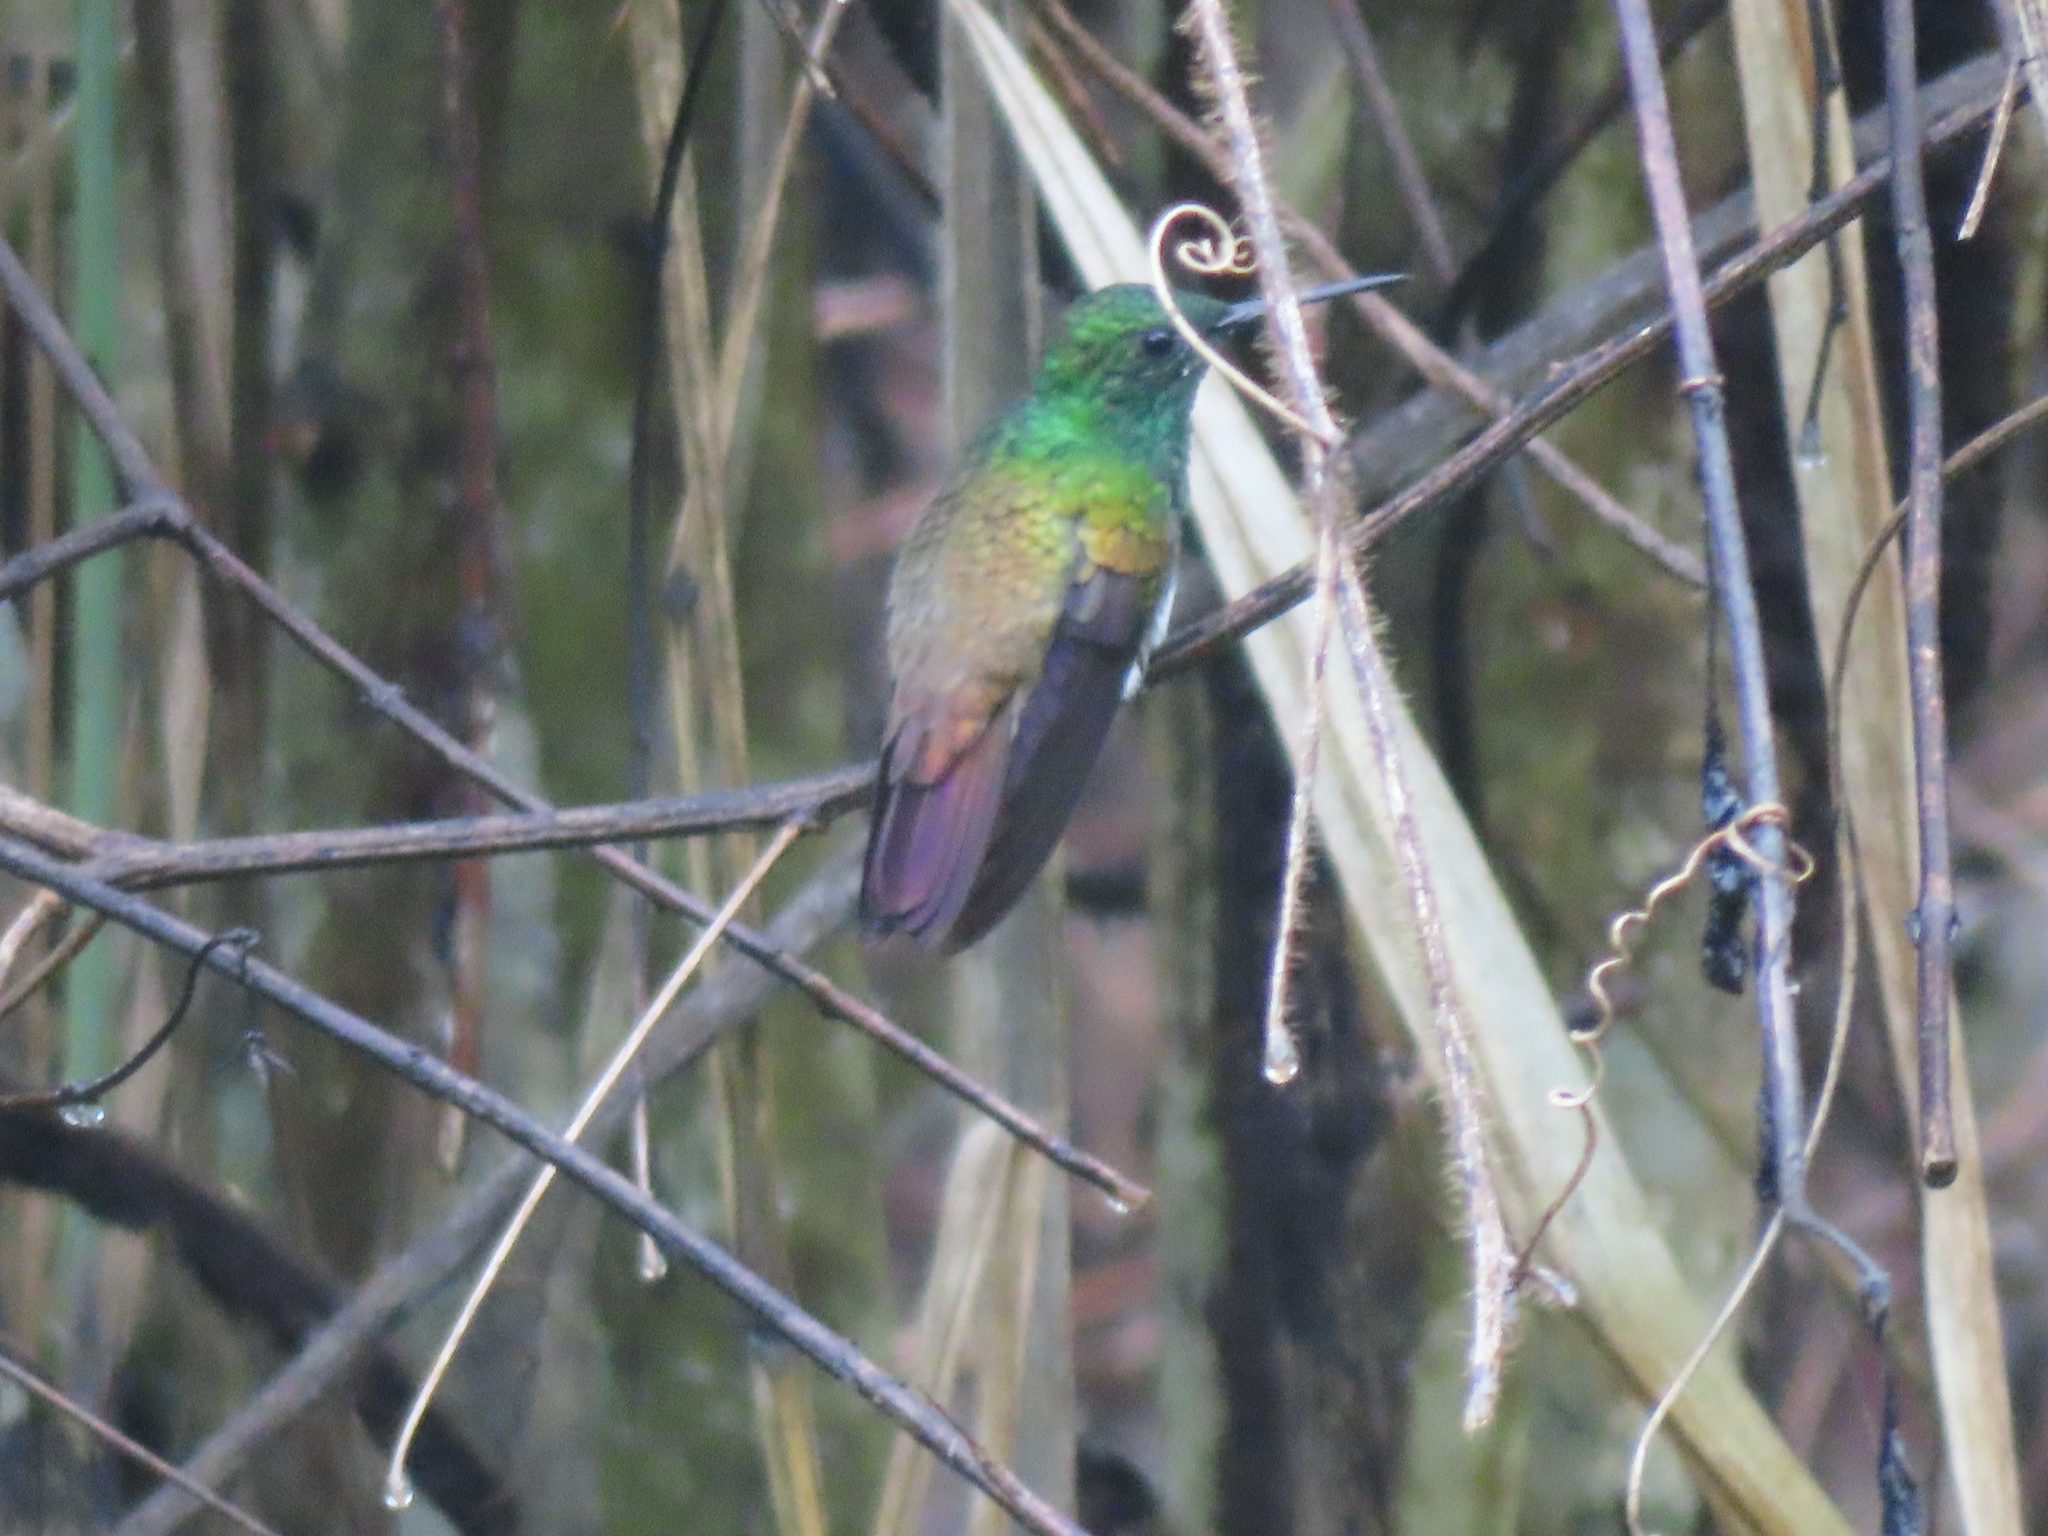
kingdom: Animalia
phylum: Chordata
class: Aves
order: Apodiformes
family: Trochilidae
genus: Saucerottia
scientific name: Saucerottia edward
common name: Snowy-bellied hummingbird
